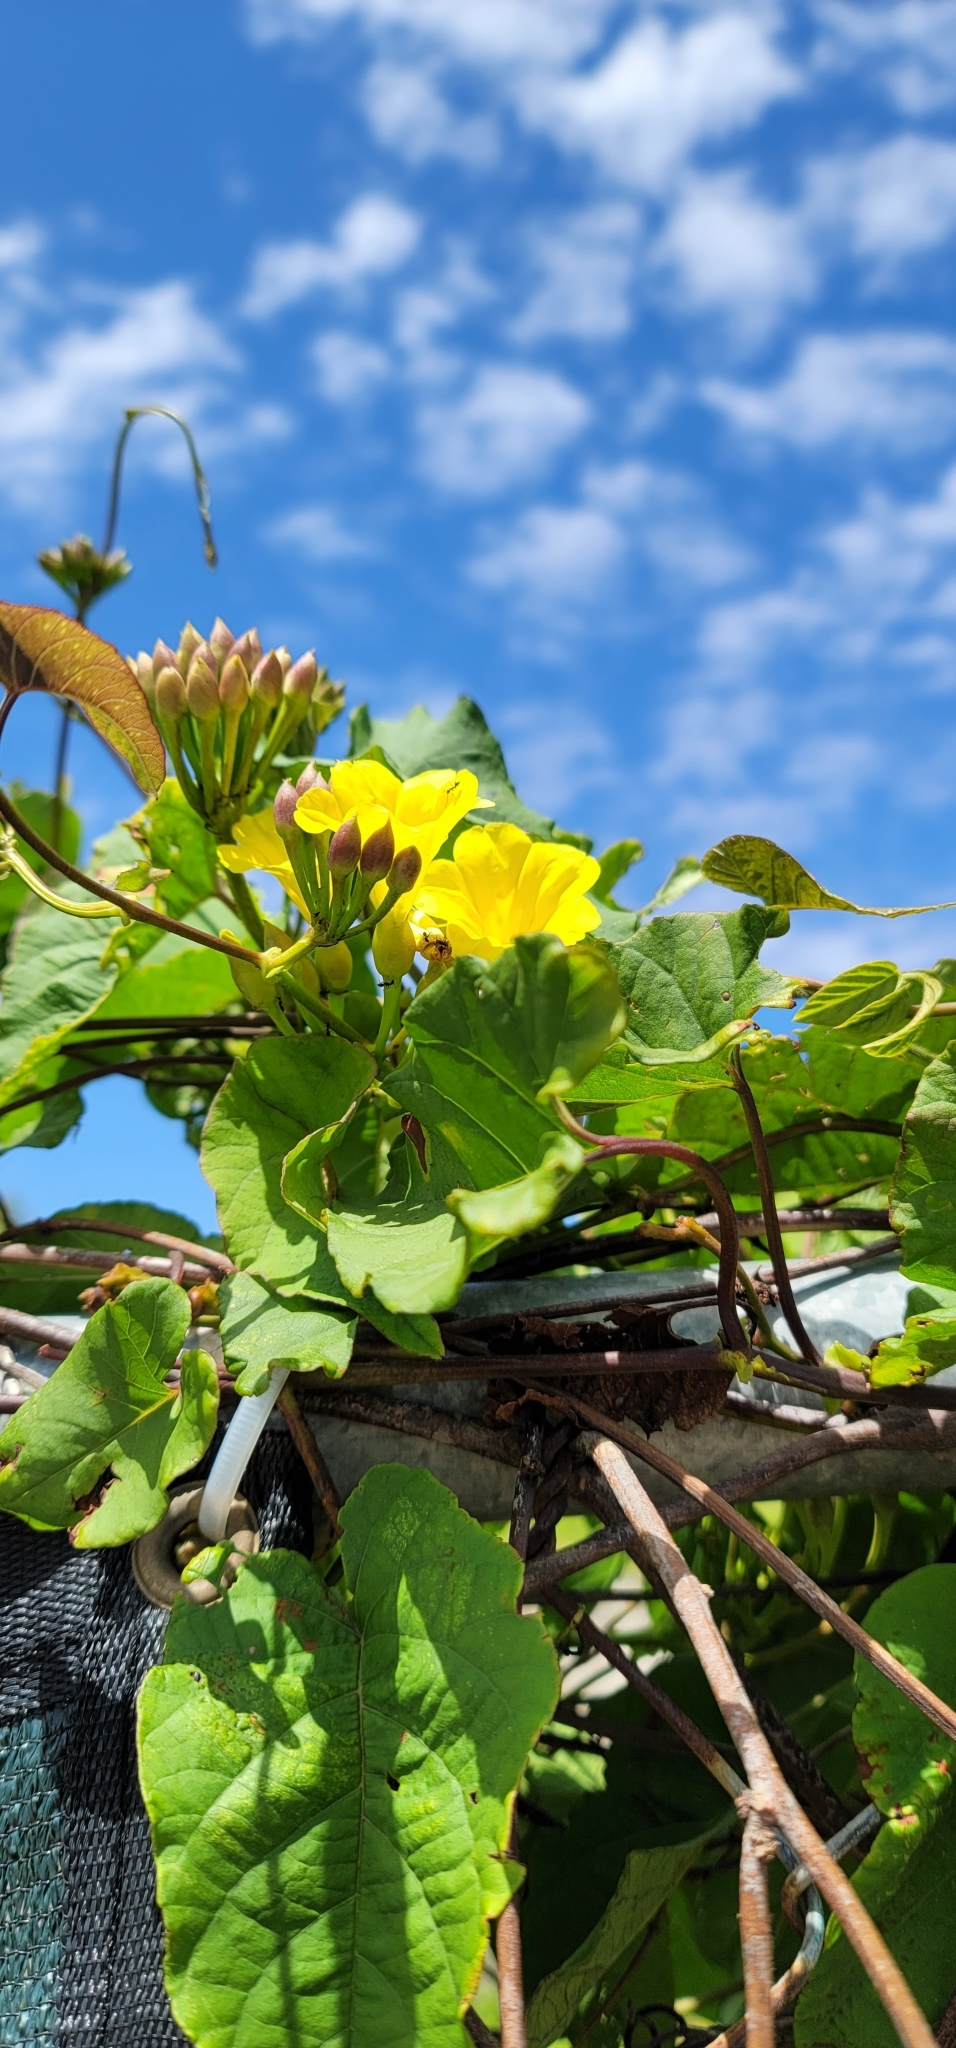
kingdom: Plantae
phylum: Tracheophyta
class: Magnoliopsida
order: Solanales
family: Convolvulaceae
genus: Camonea
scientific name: Camonea umbellata
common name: Hogvine
